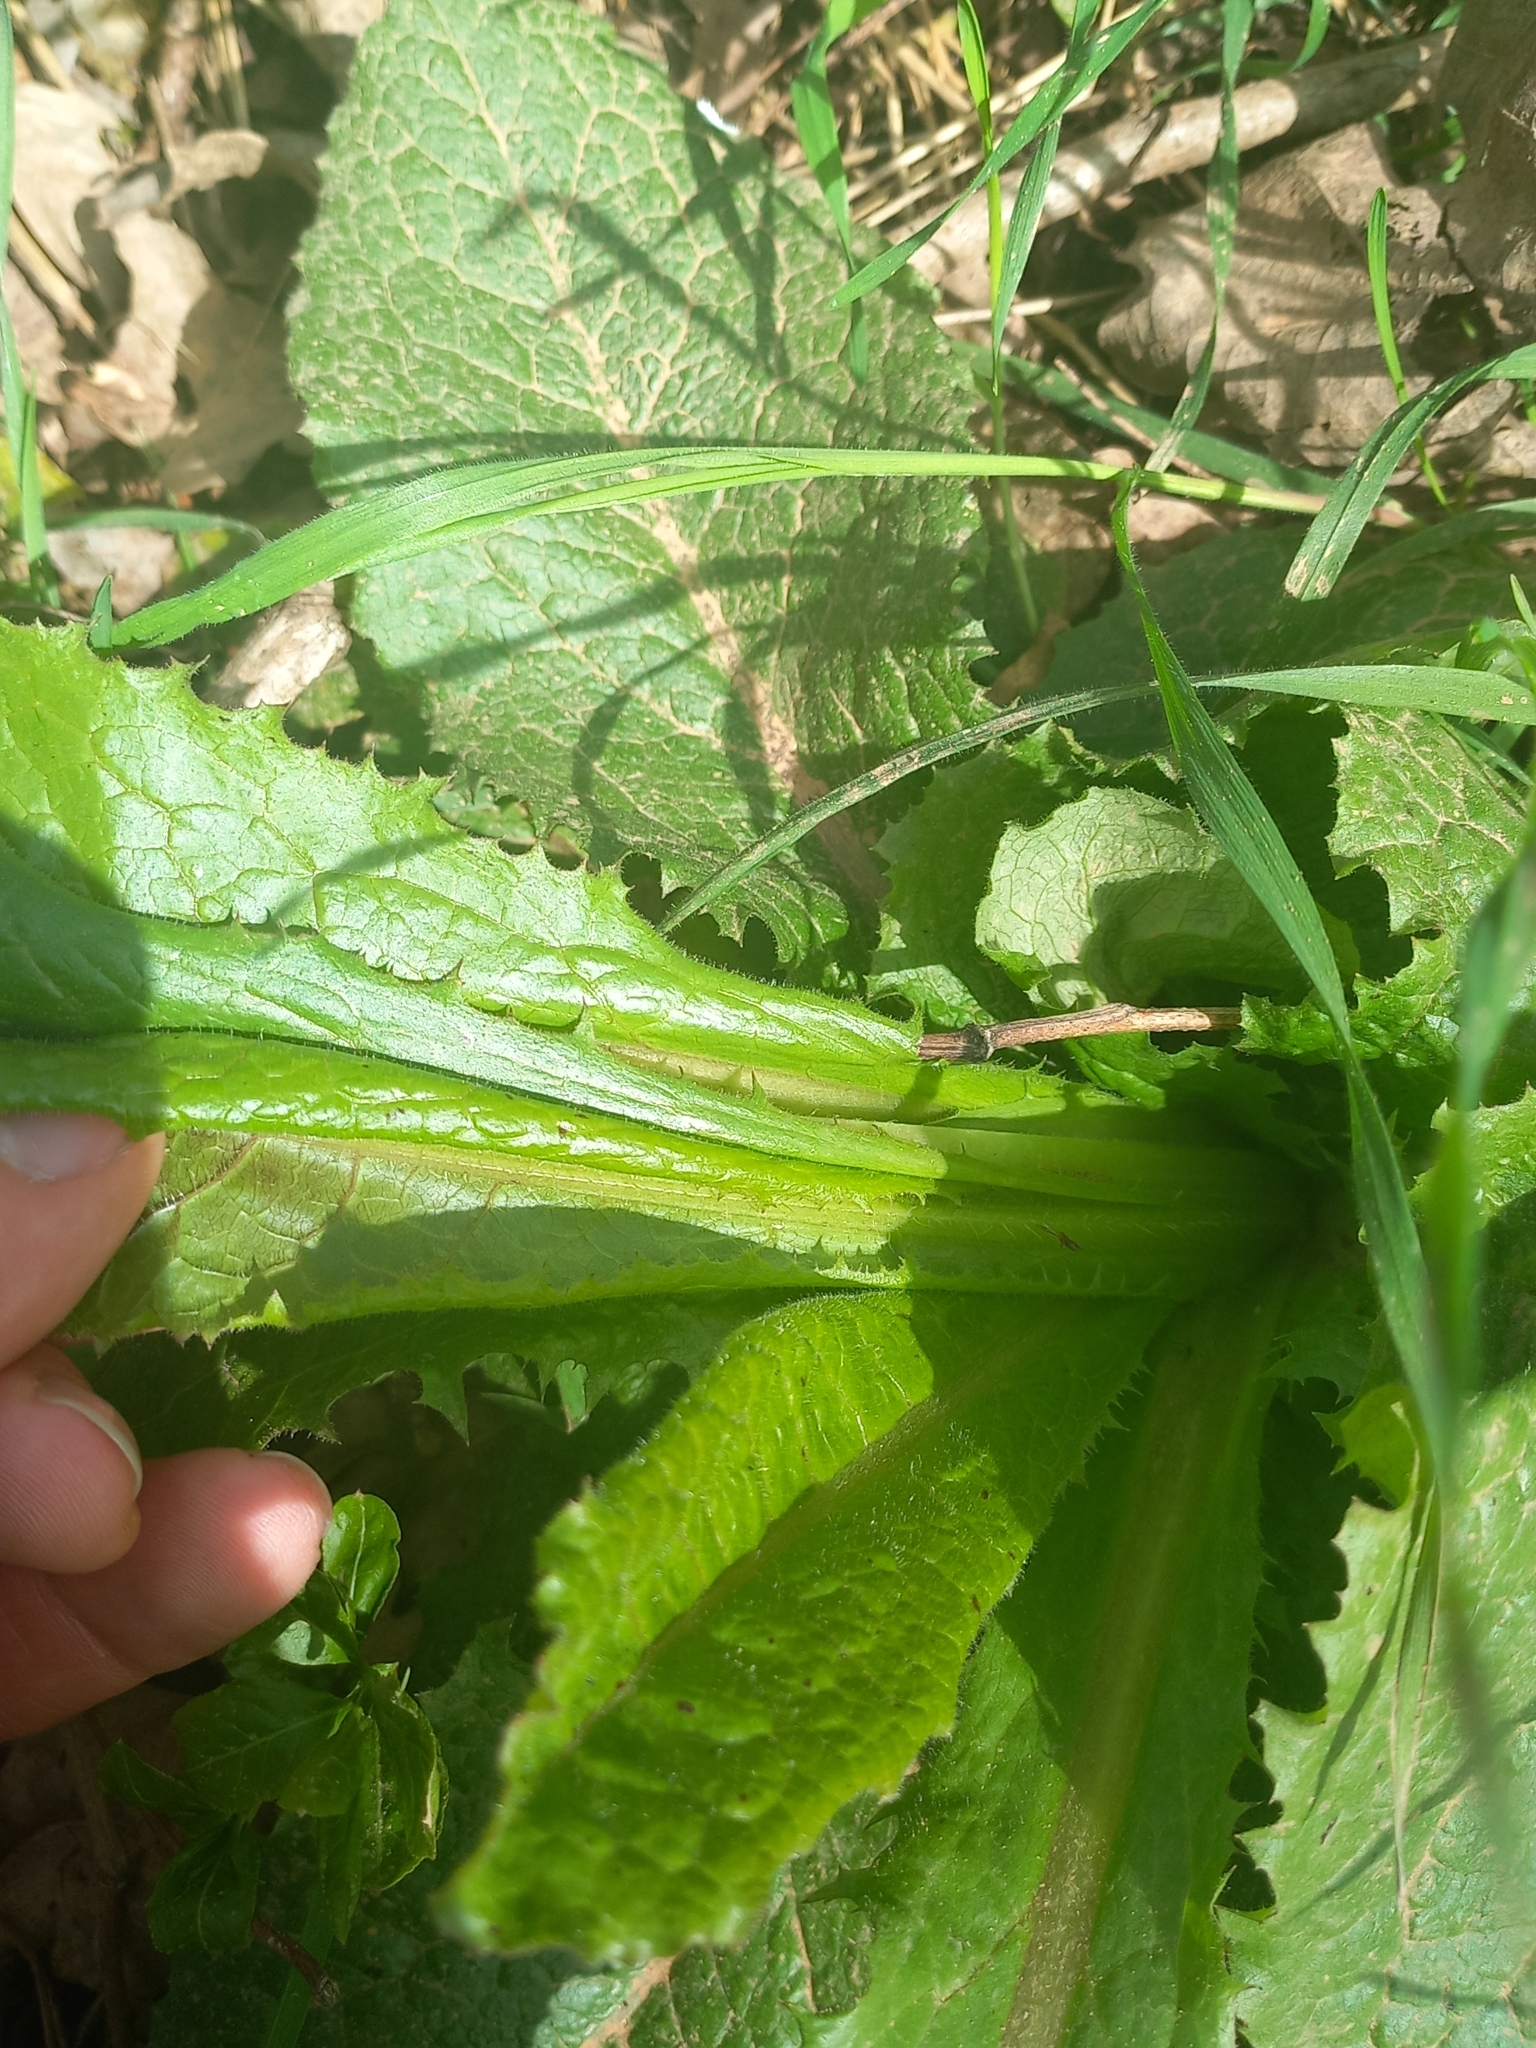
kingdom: Plantae
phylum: Tracheophyta
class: Magnoliopsida
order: Asterales
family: Asteraceae
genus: Lactuca
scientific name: Lactuca serriola
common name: Prickly lettuce
